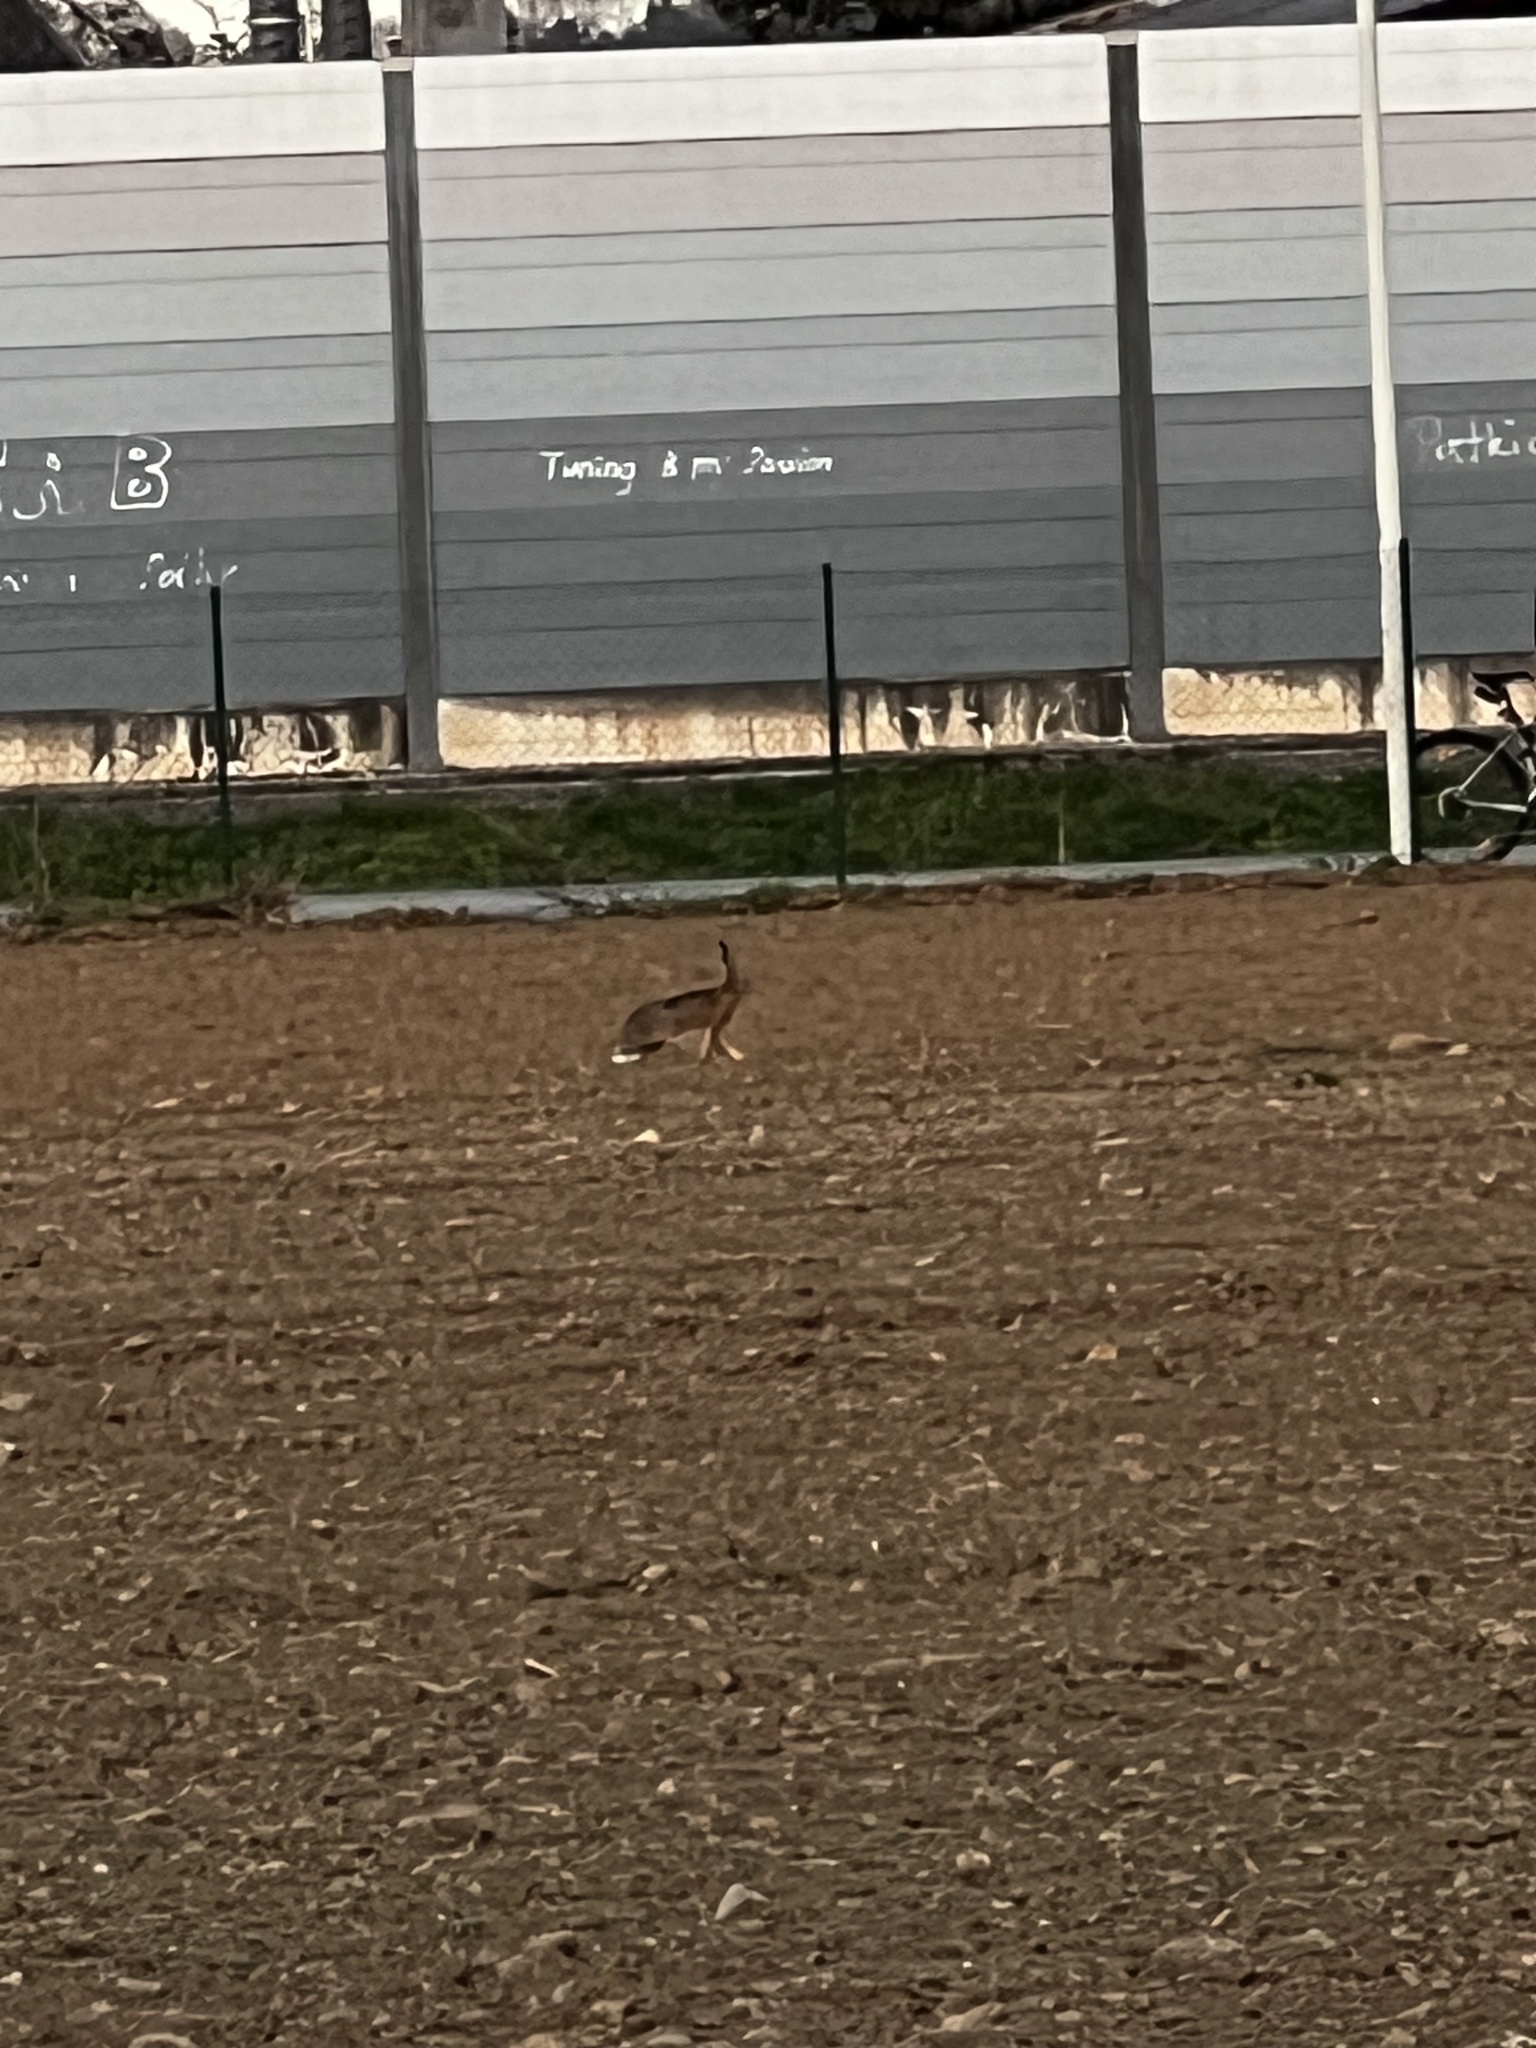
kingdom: Animalia
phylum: Chordata
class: Mammalia
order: Lagomorpha
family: Leporidae
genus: Lepus
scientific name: Lepus europaeus
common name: European hare
